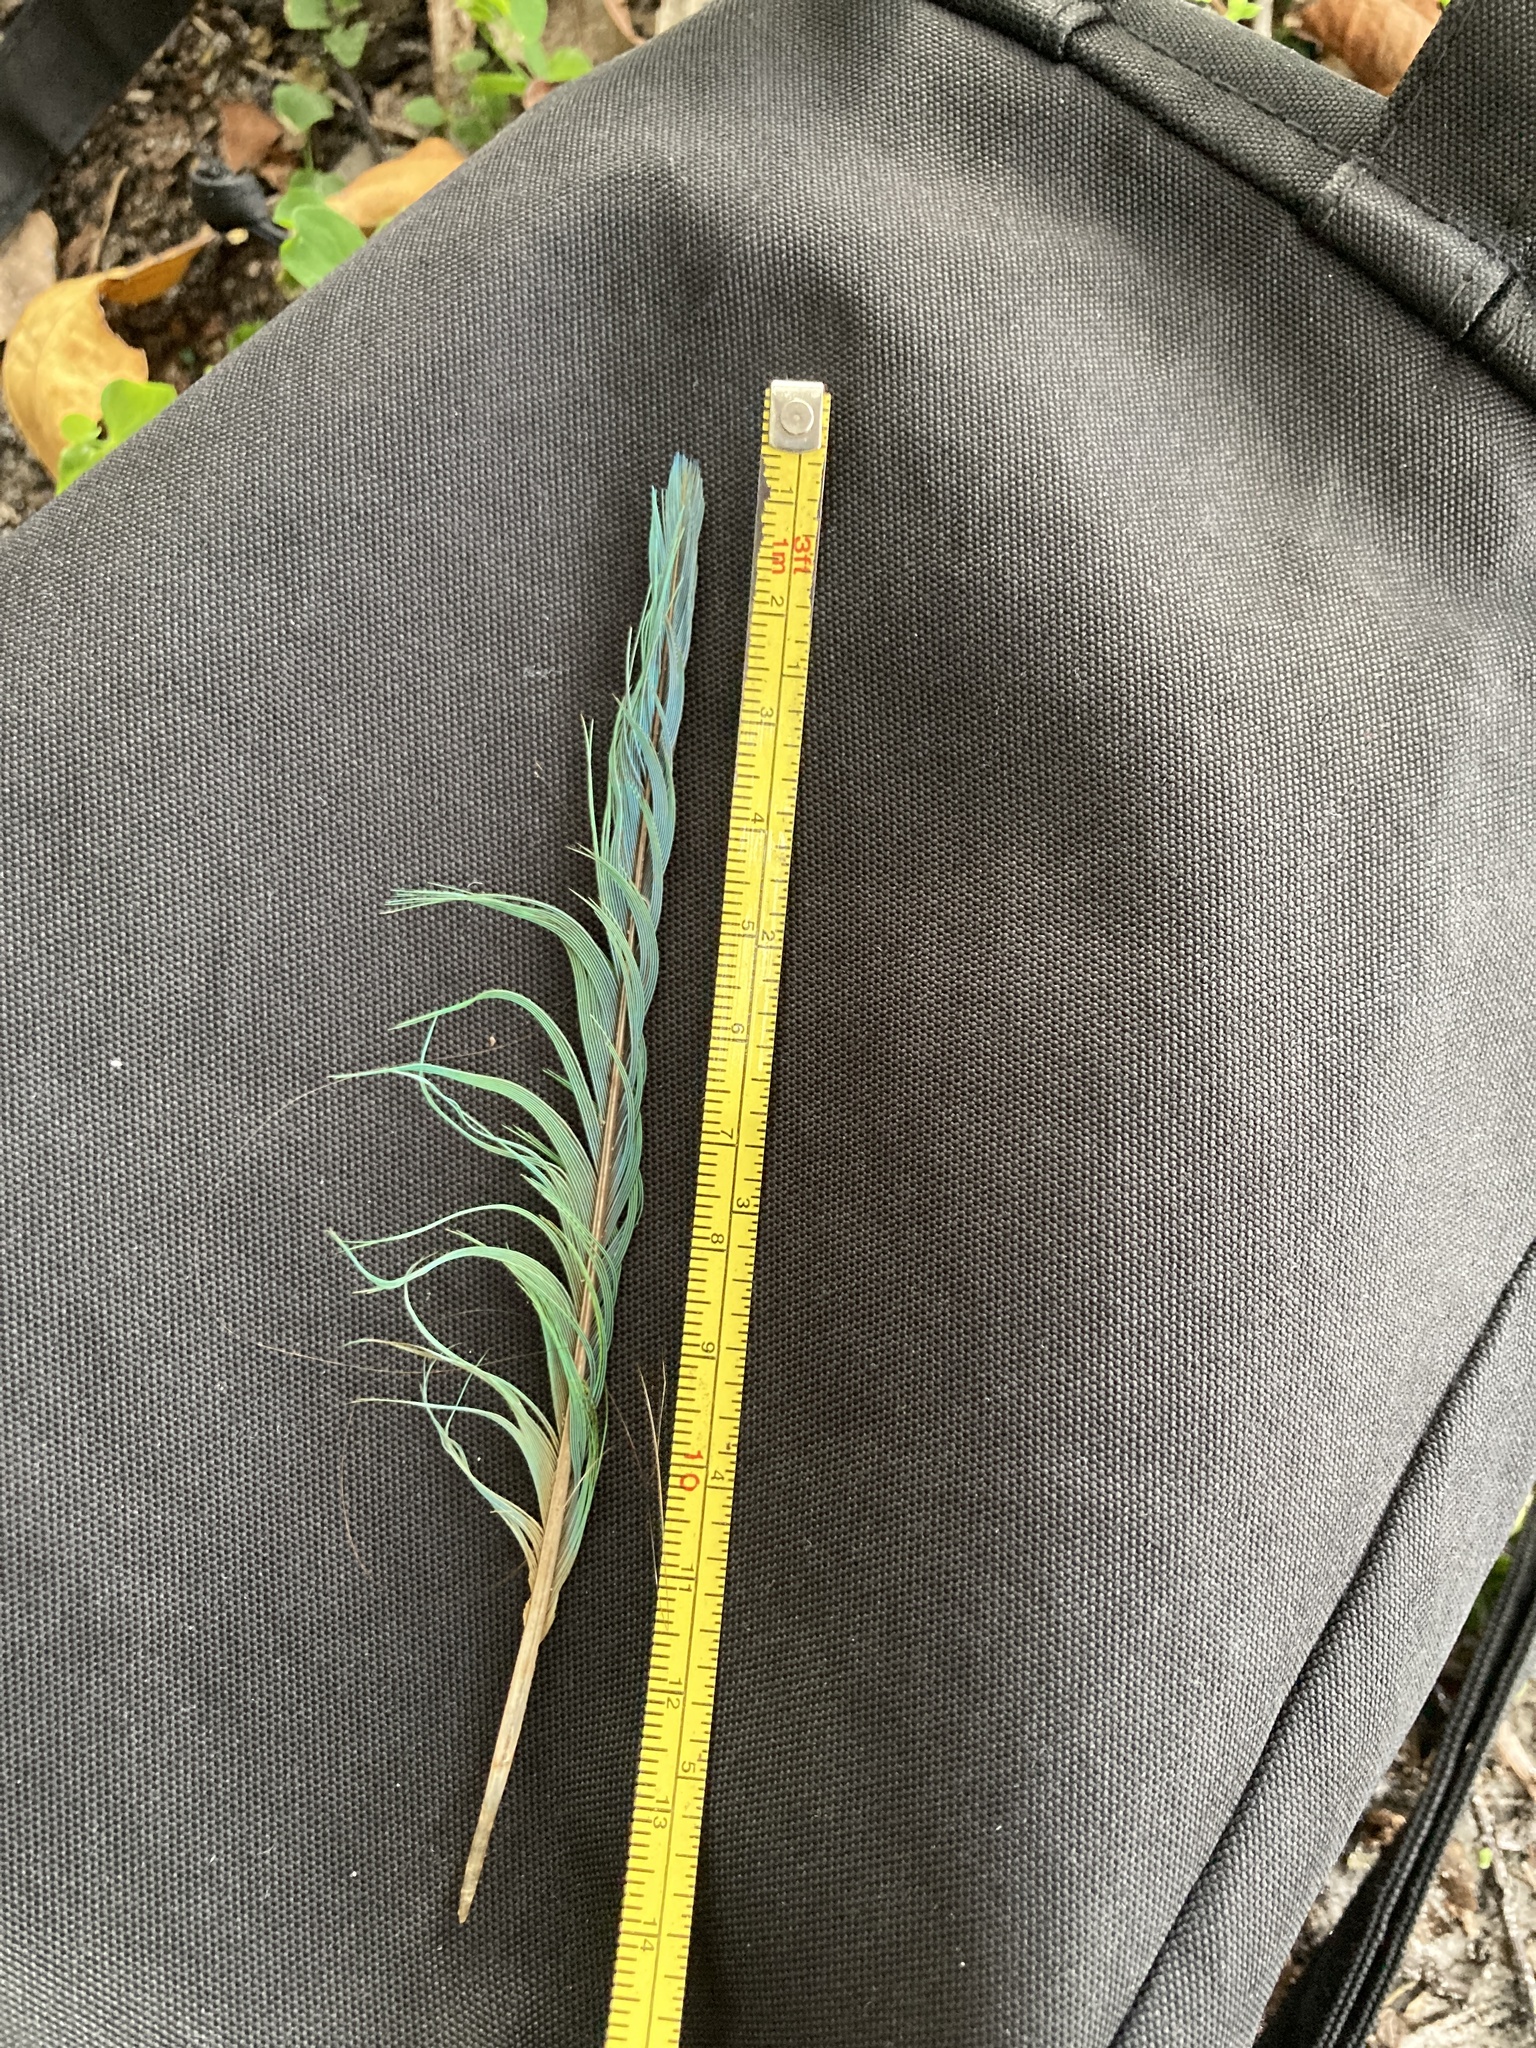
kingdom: Animalia
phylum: Chordata
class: Aves
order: Psittaciformes
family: Psittacidae
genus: Myiopsitta
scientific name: Myiopsitta monachus
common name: Monk parakeet
